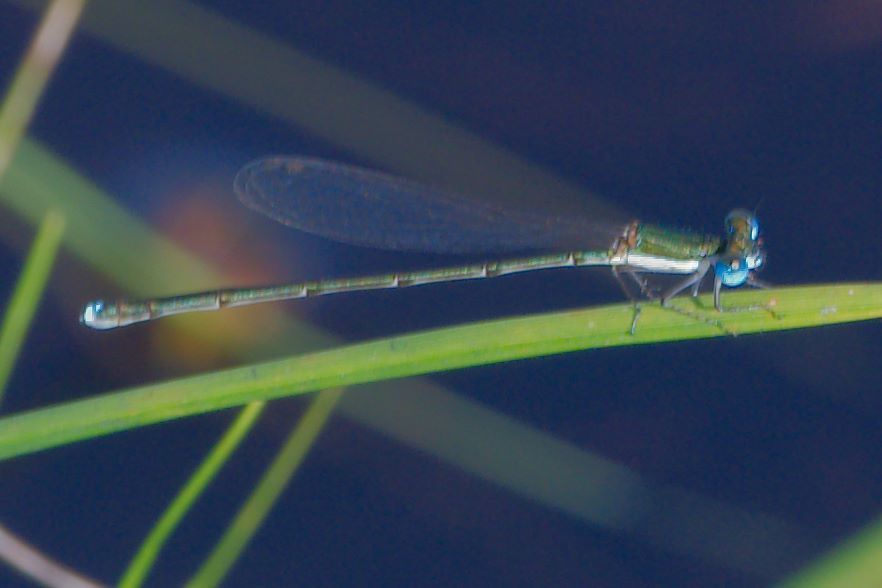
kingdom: Animalia
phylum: Arthropoda
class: Insecta
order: Odonata
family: Coenagrionidae
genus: Nehalennia
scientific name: Nehalennia integricollis
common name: Southern sprite
